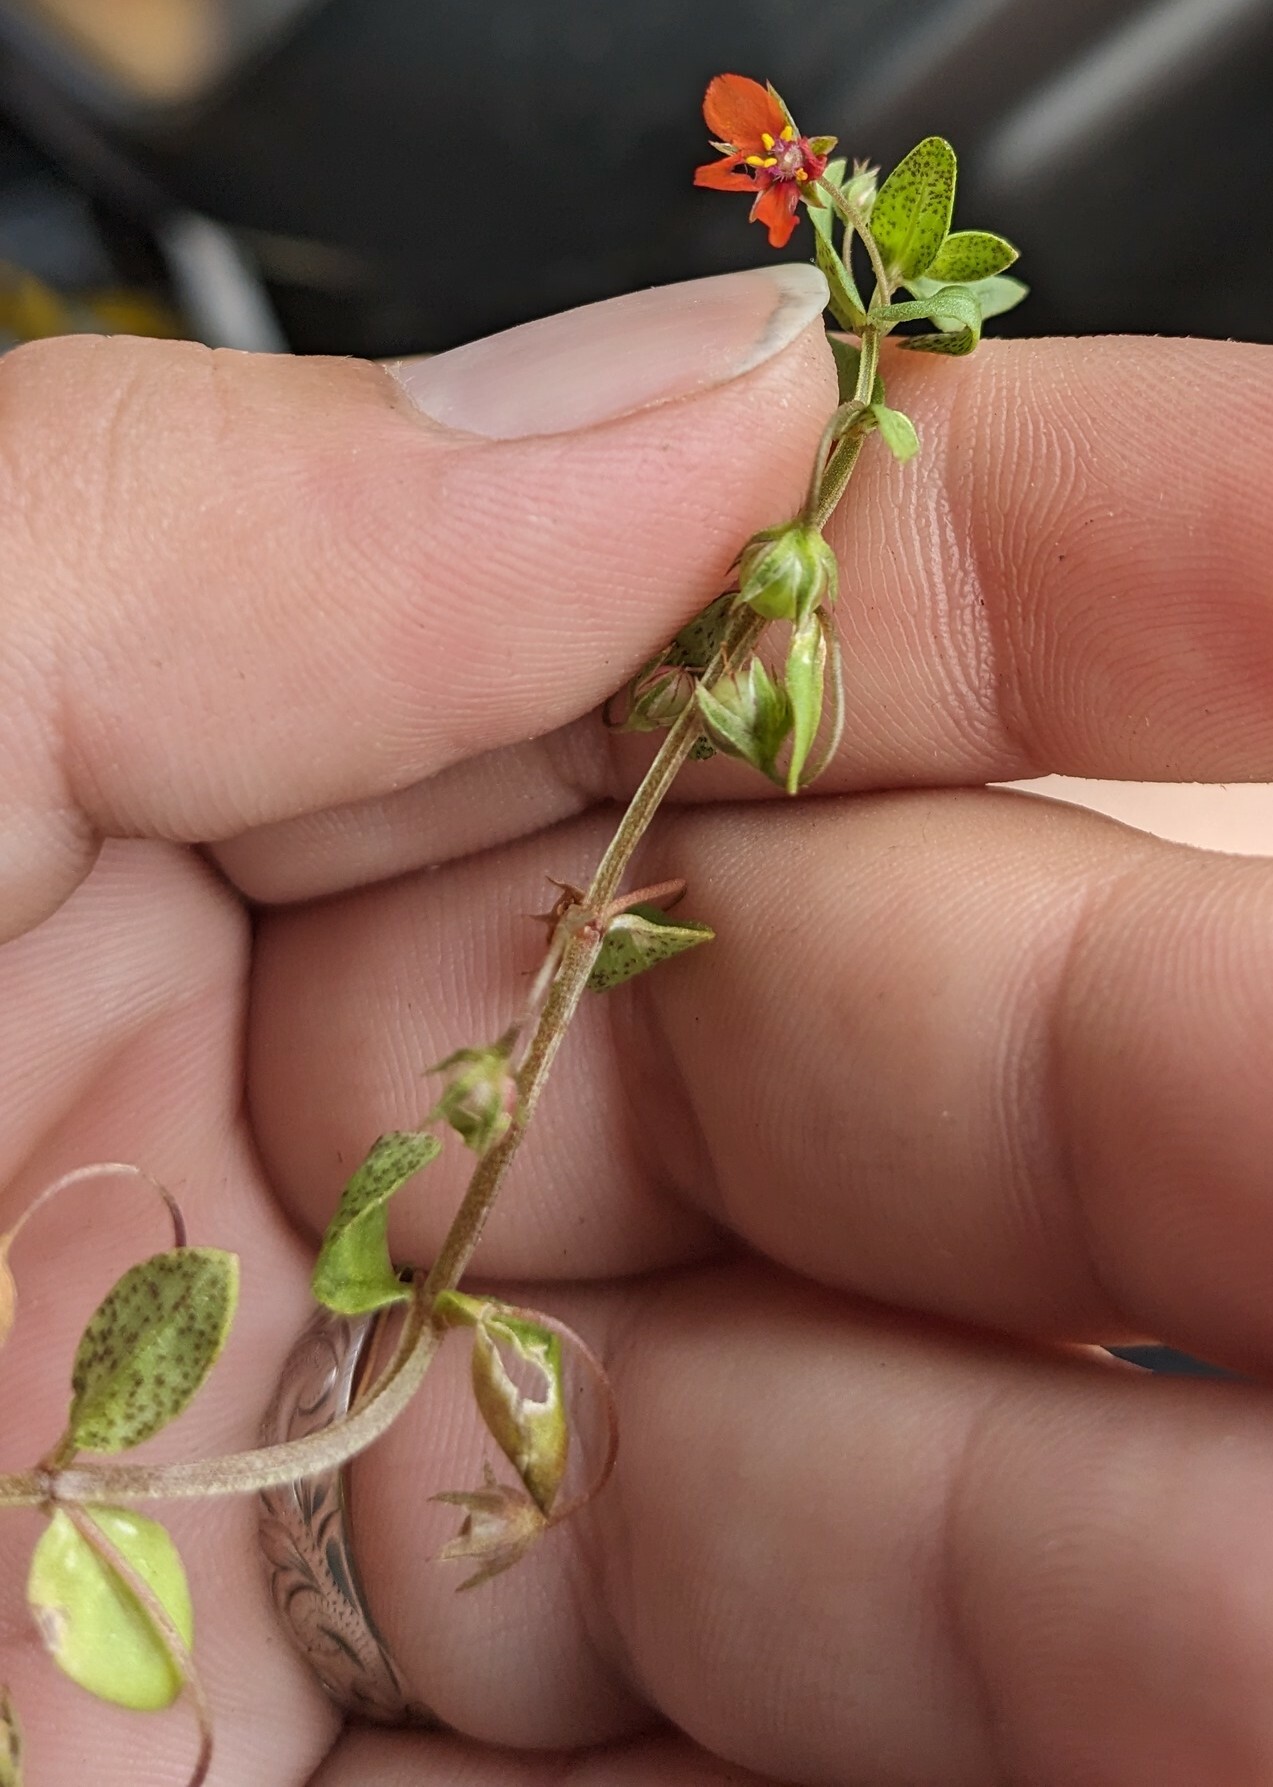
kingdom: Plantae
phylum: Tracheophyta
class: Magnoliopsida
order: Ericales
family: Primulaceae
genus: Lysimachia
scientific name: Lysimachia arvensis
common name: Scarlet pimpernel
